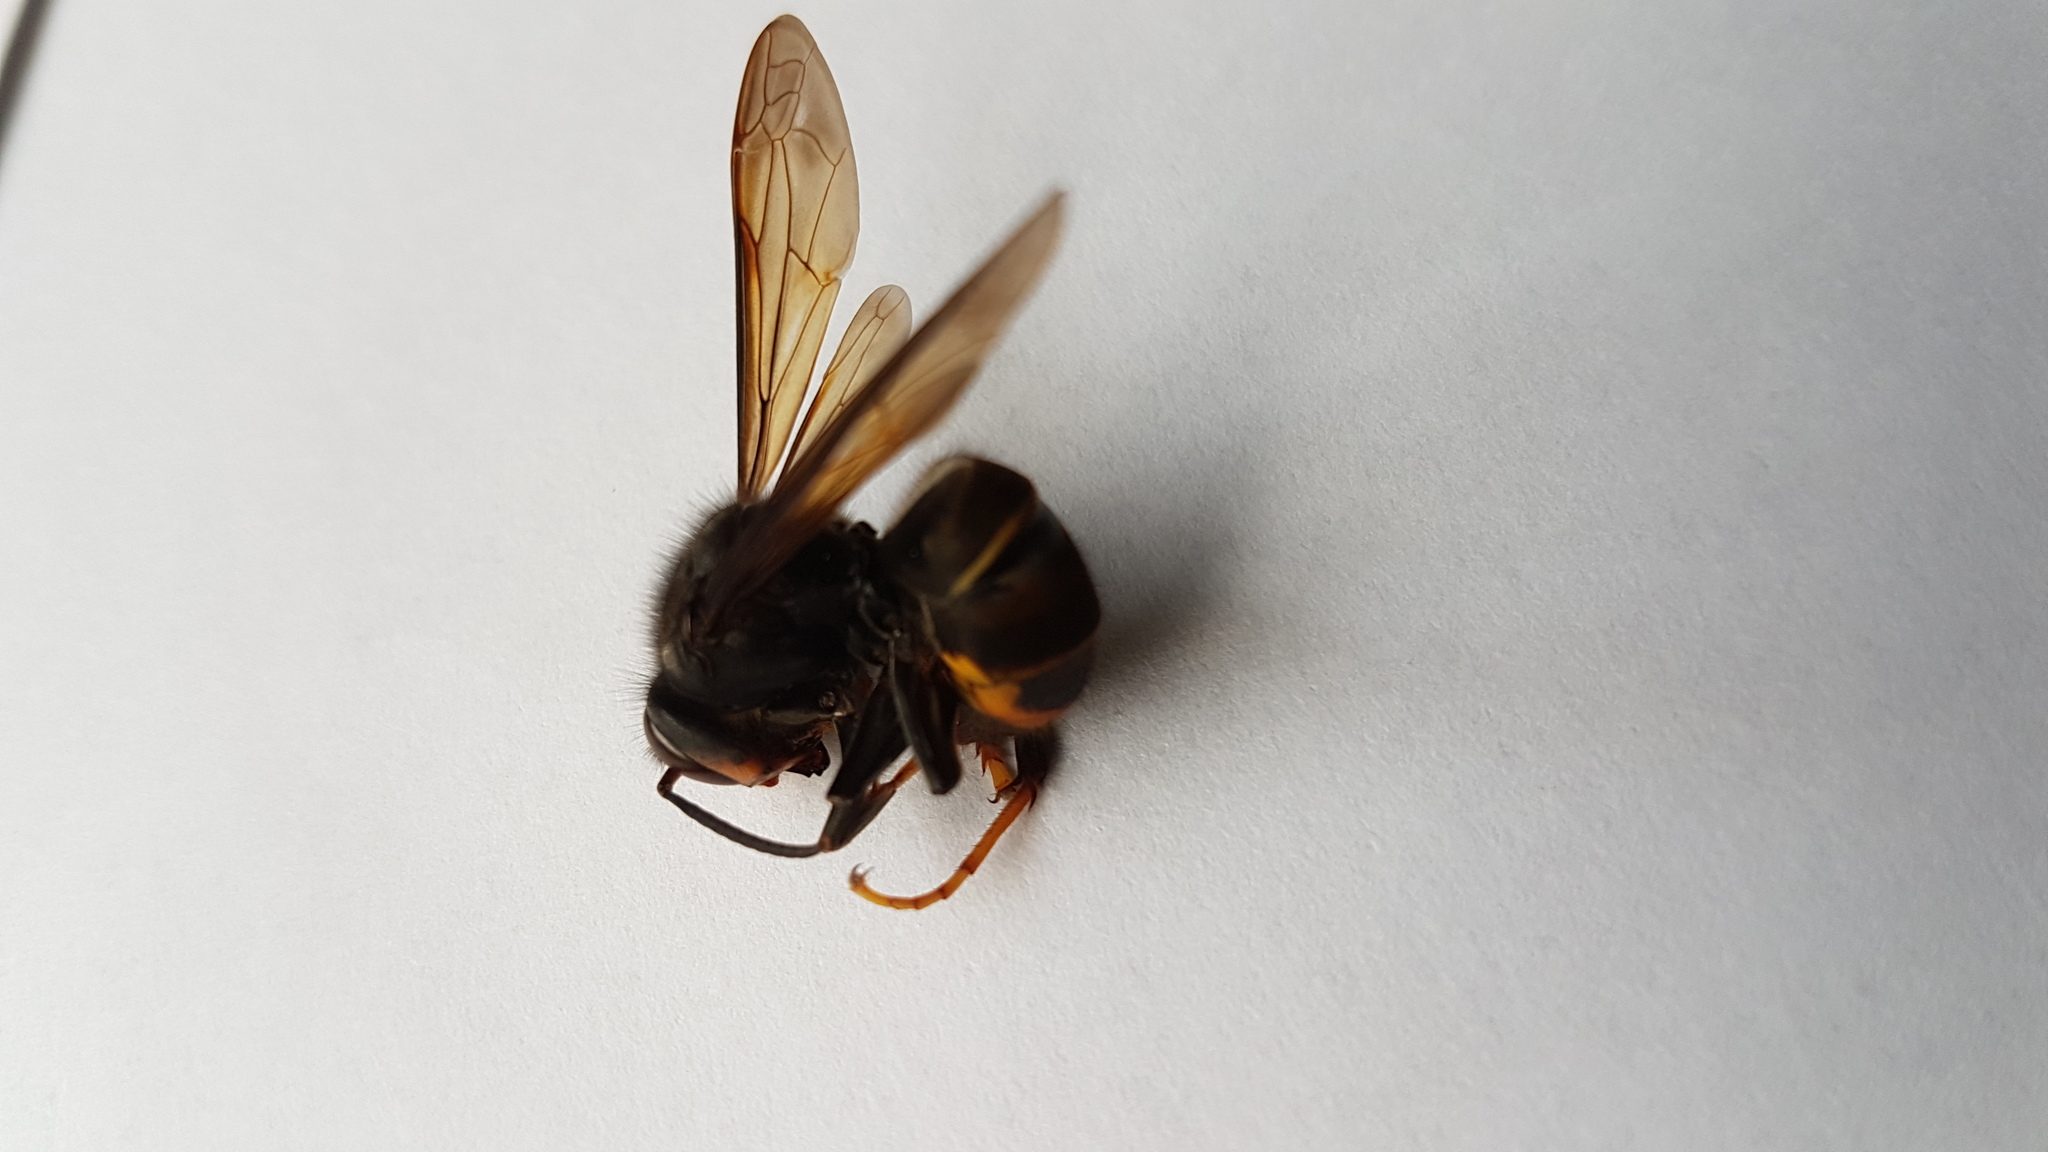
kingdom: Animalia
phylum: Arthropoda
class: Insecta
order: Hymenoptera
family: Vespidae
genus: Vespa
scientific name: Vespa velutina
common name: Asian hornet
